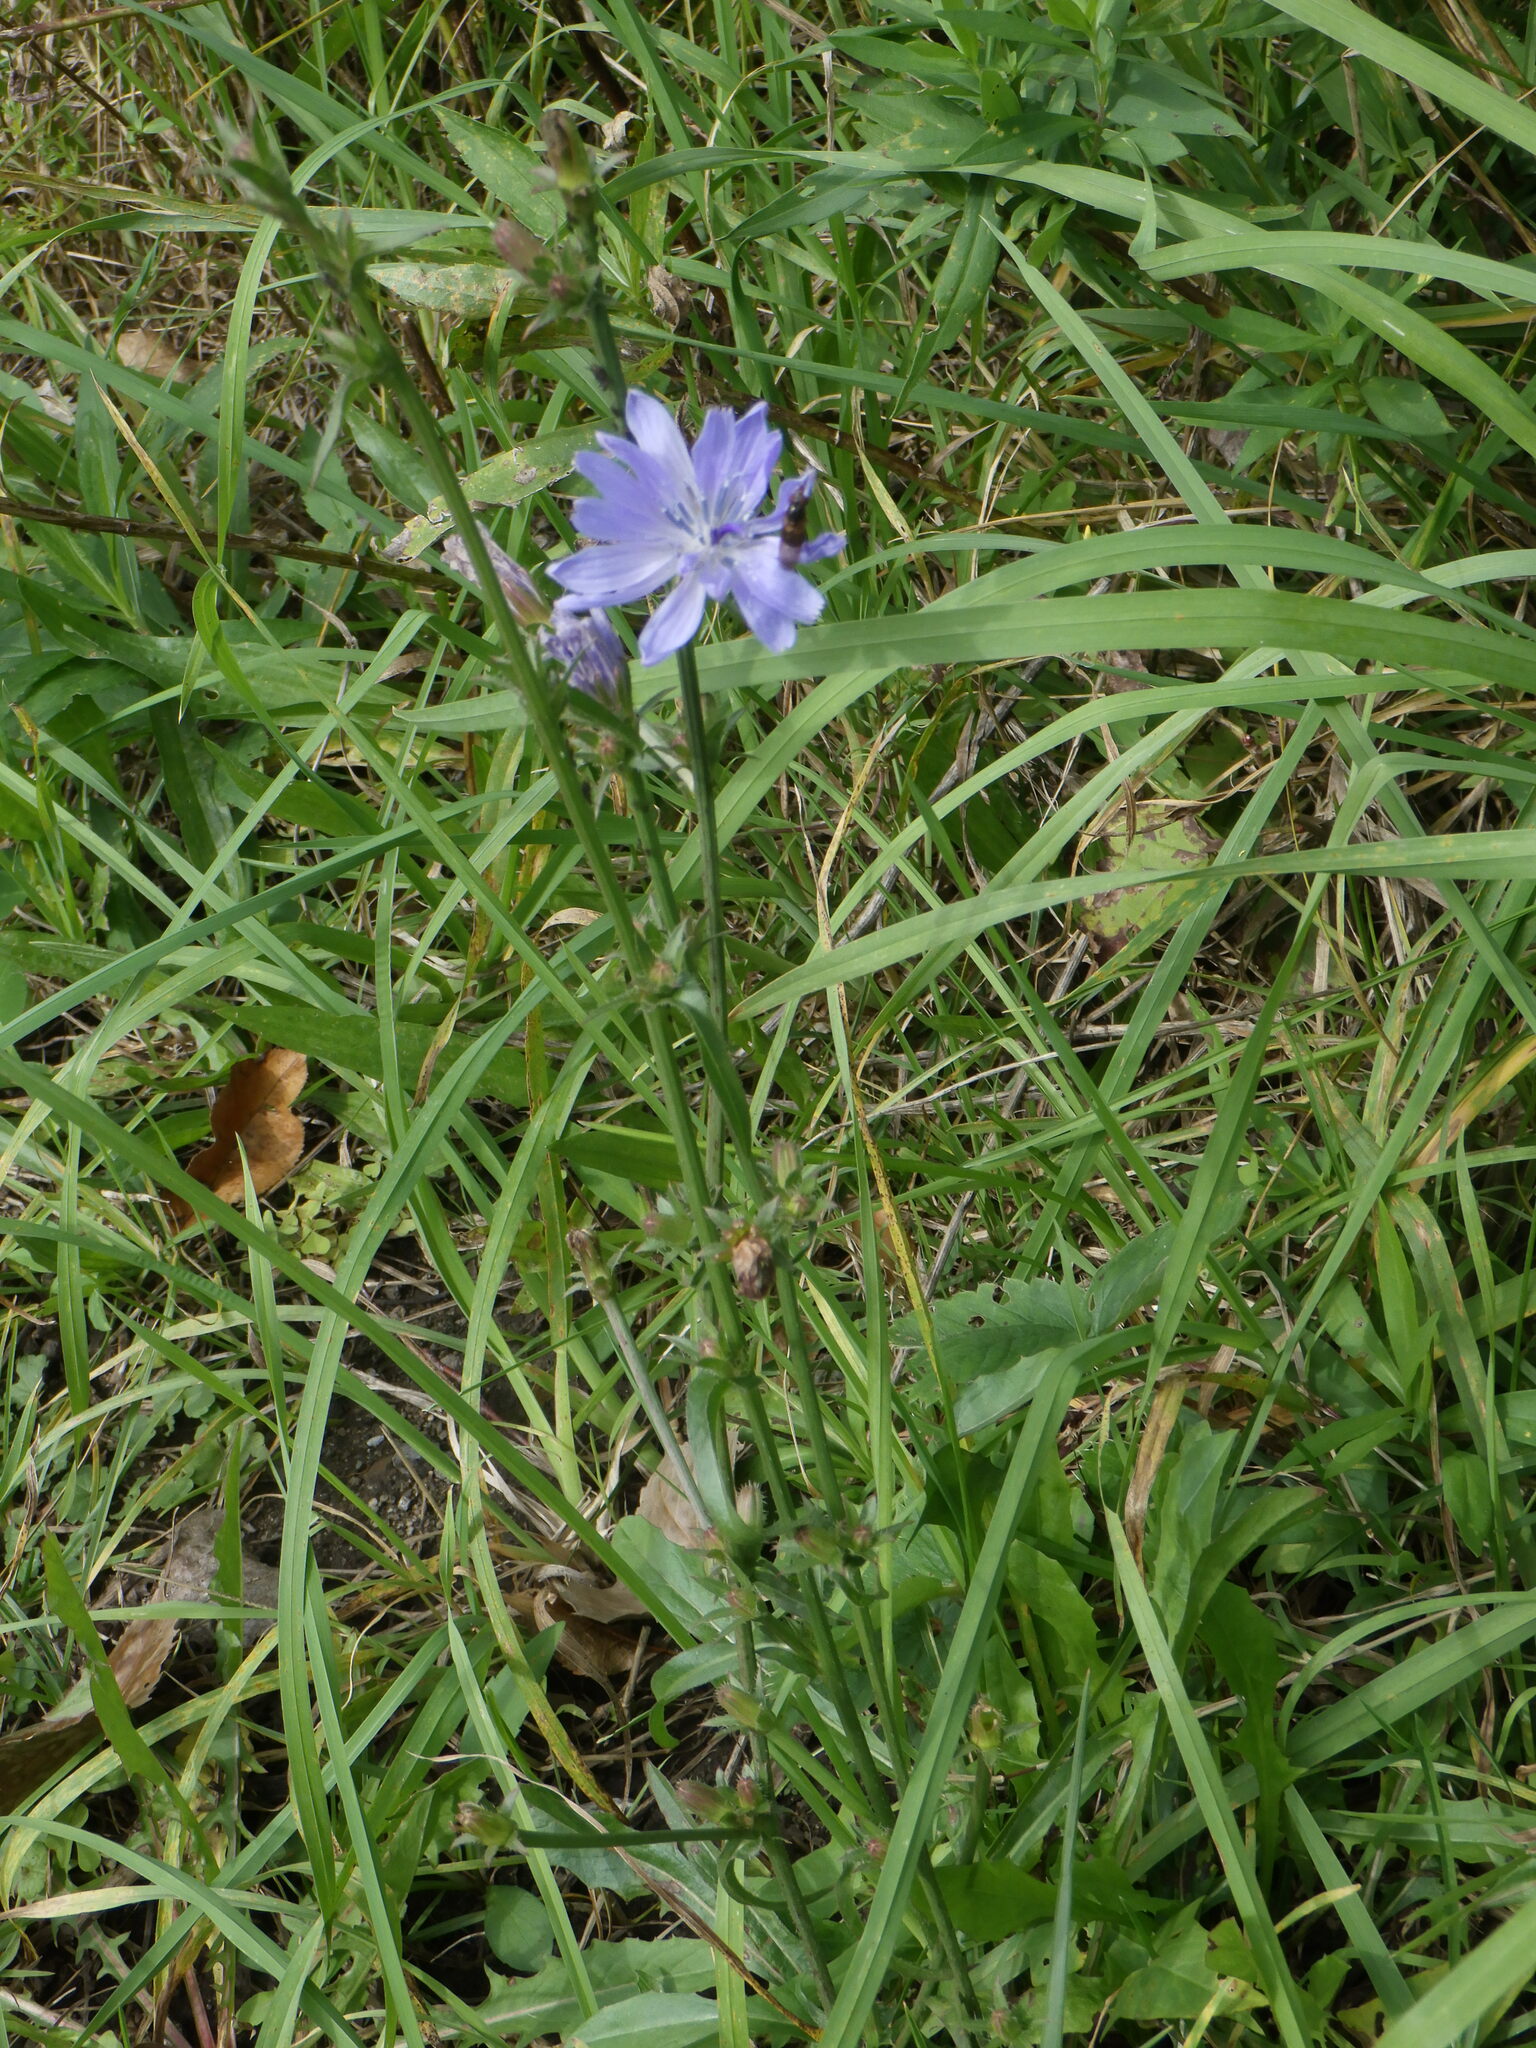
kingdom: Plantae
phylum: Tracheophyta
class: Magnoliopsida
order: Asterales
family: Asteraceae
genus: Cichorium
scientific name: Cichorium intybus
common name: Chicory
